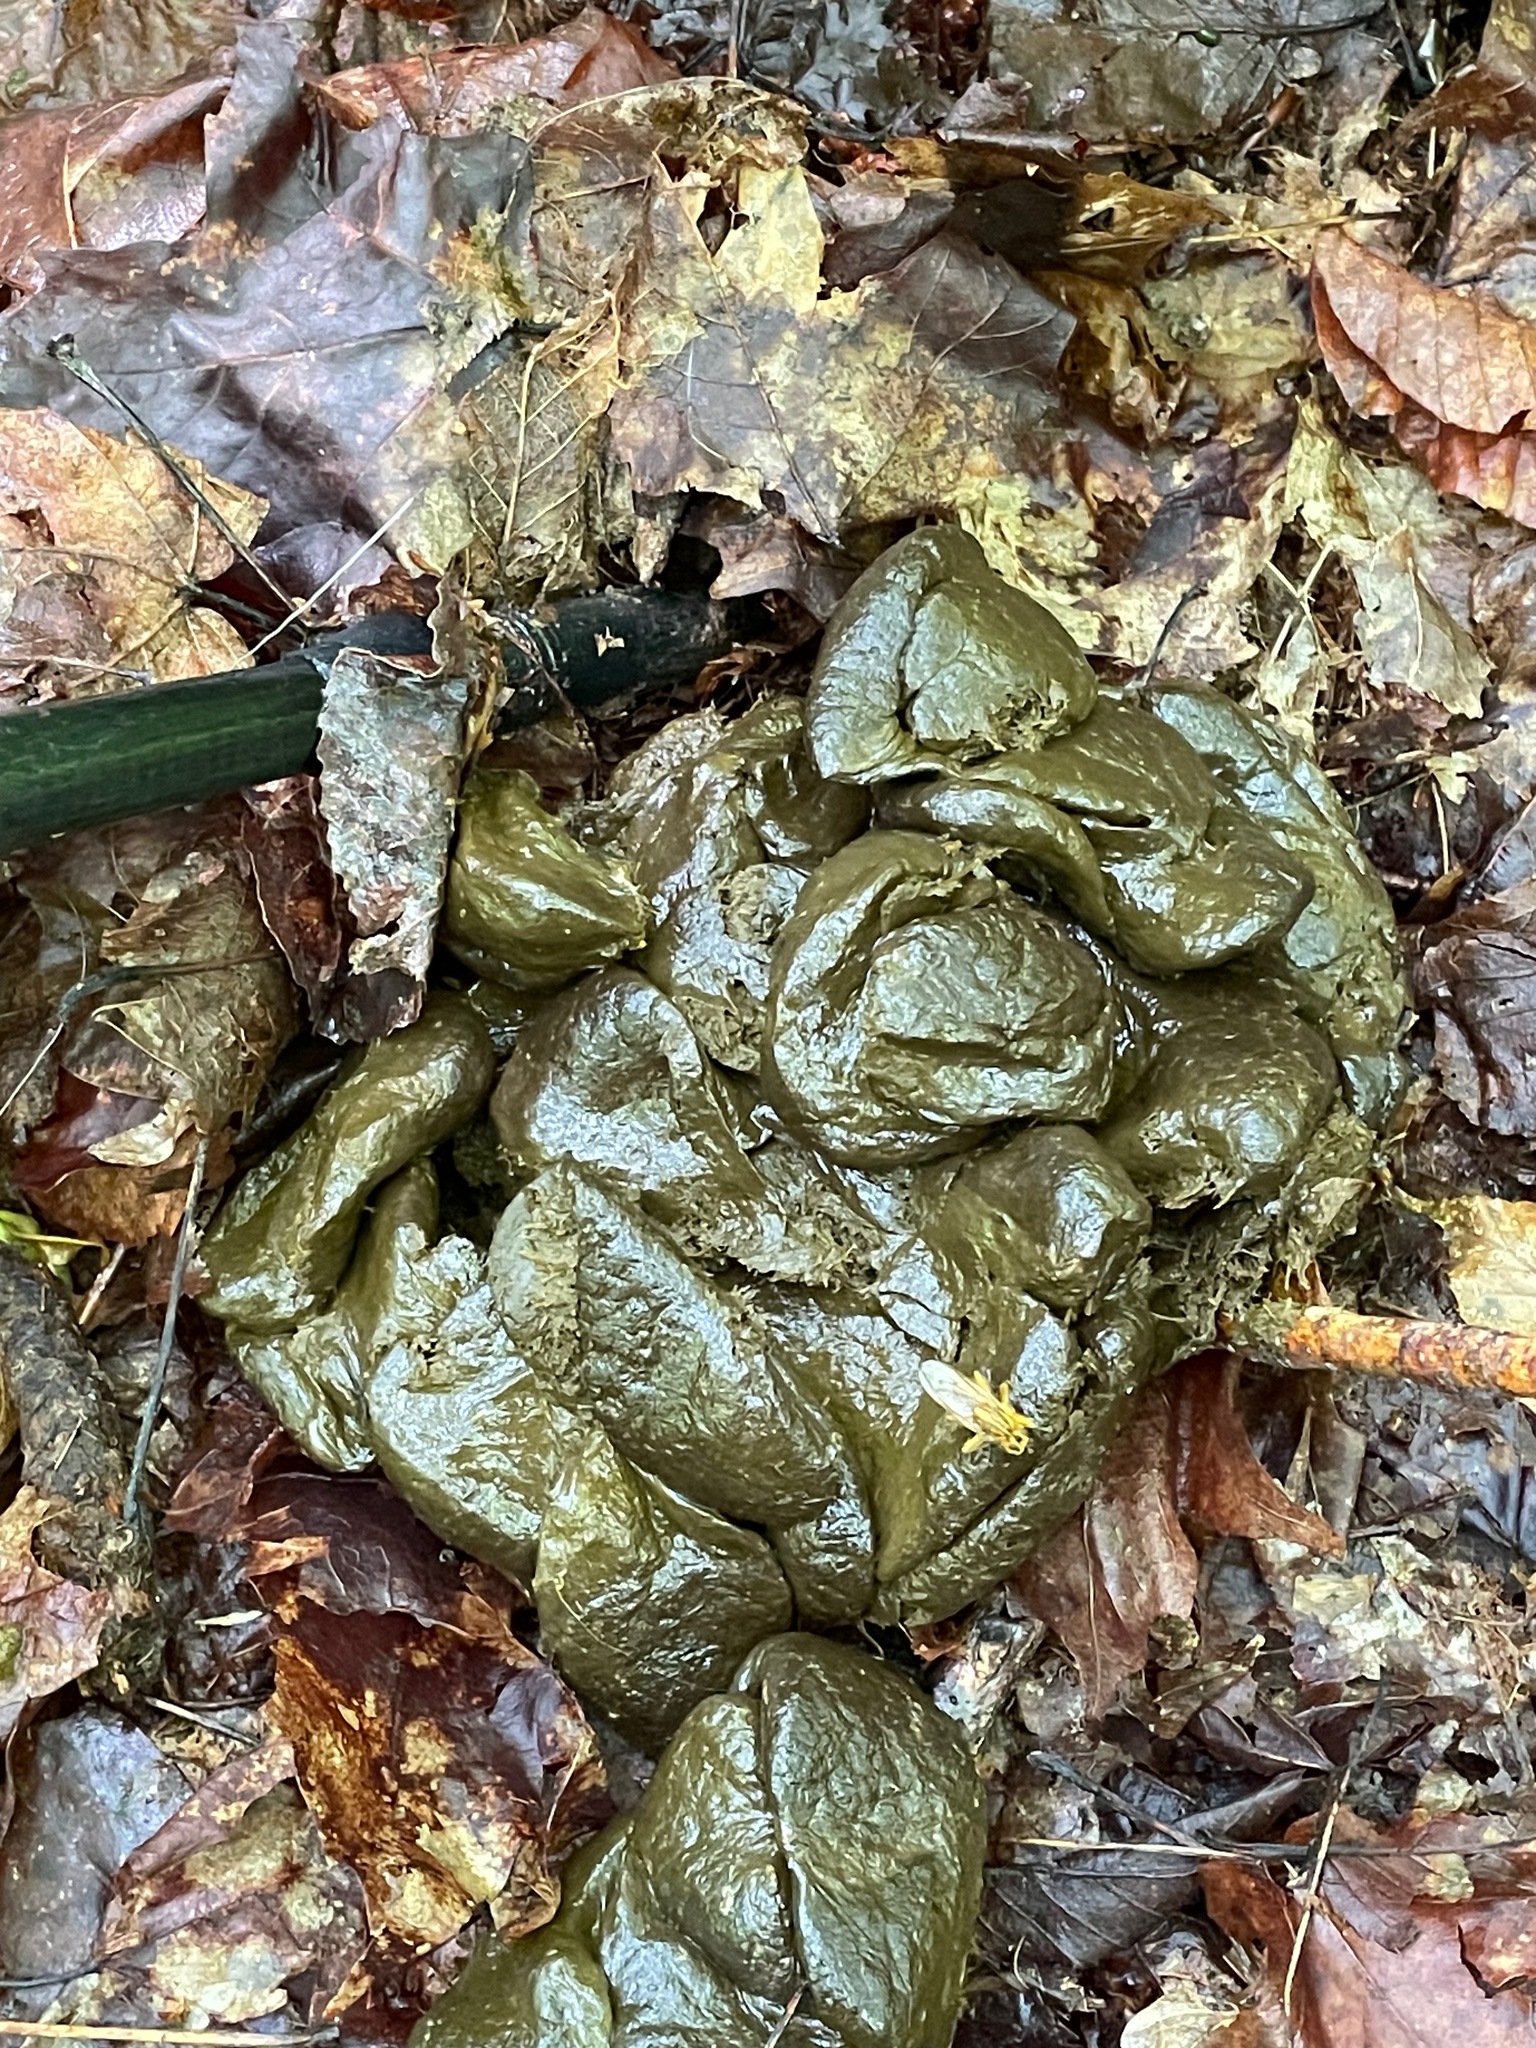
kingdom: Animalia
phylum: Chordata
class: Mammalia
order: Artiodactyla
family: Cervidae
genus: Alces
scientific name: Alces alces
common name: Moose
